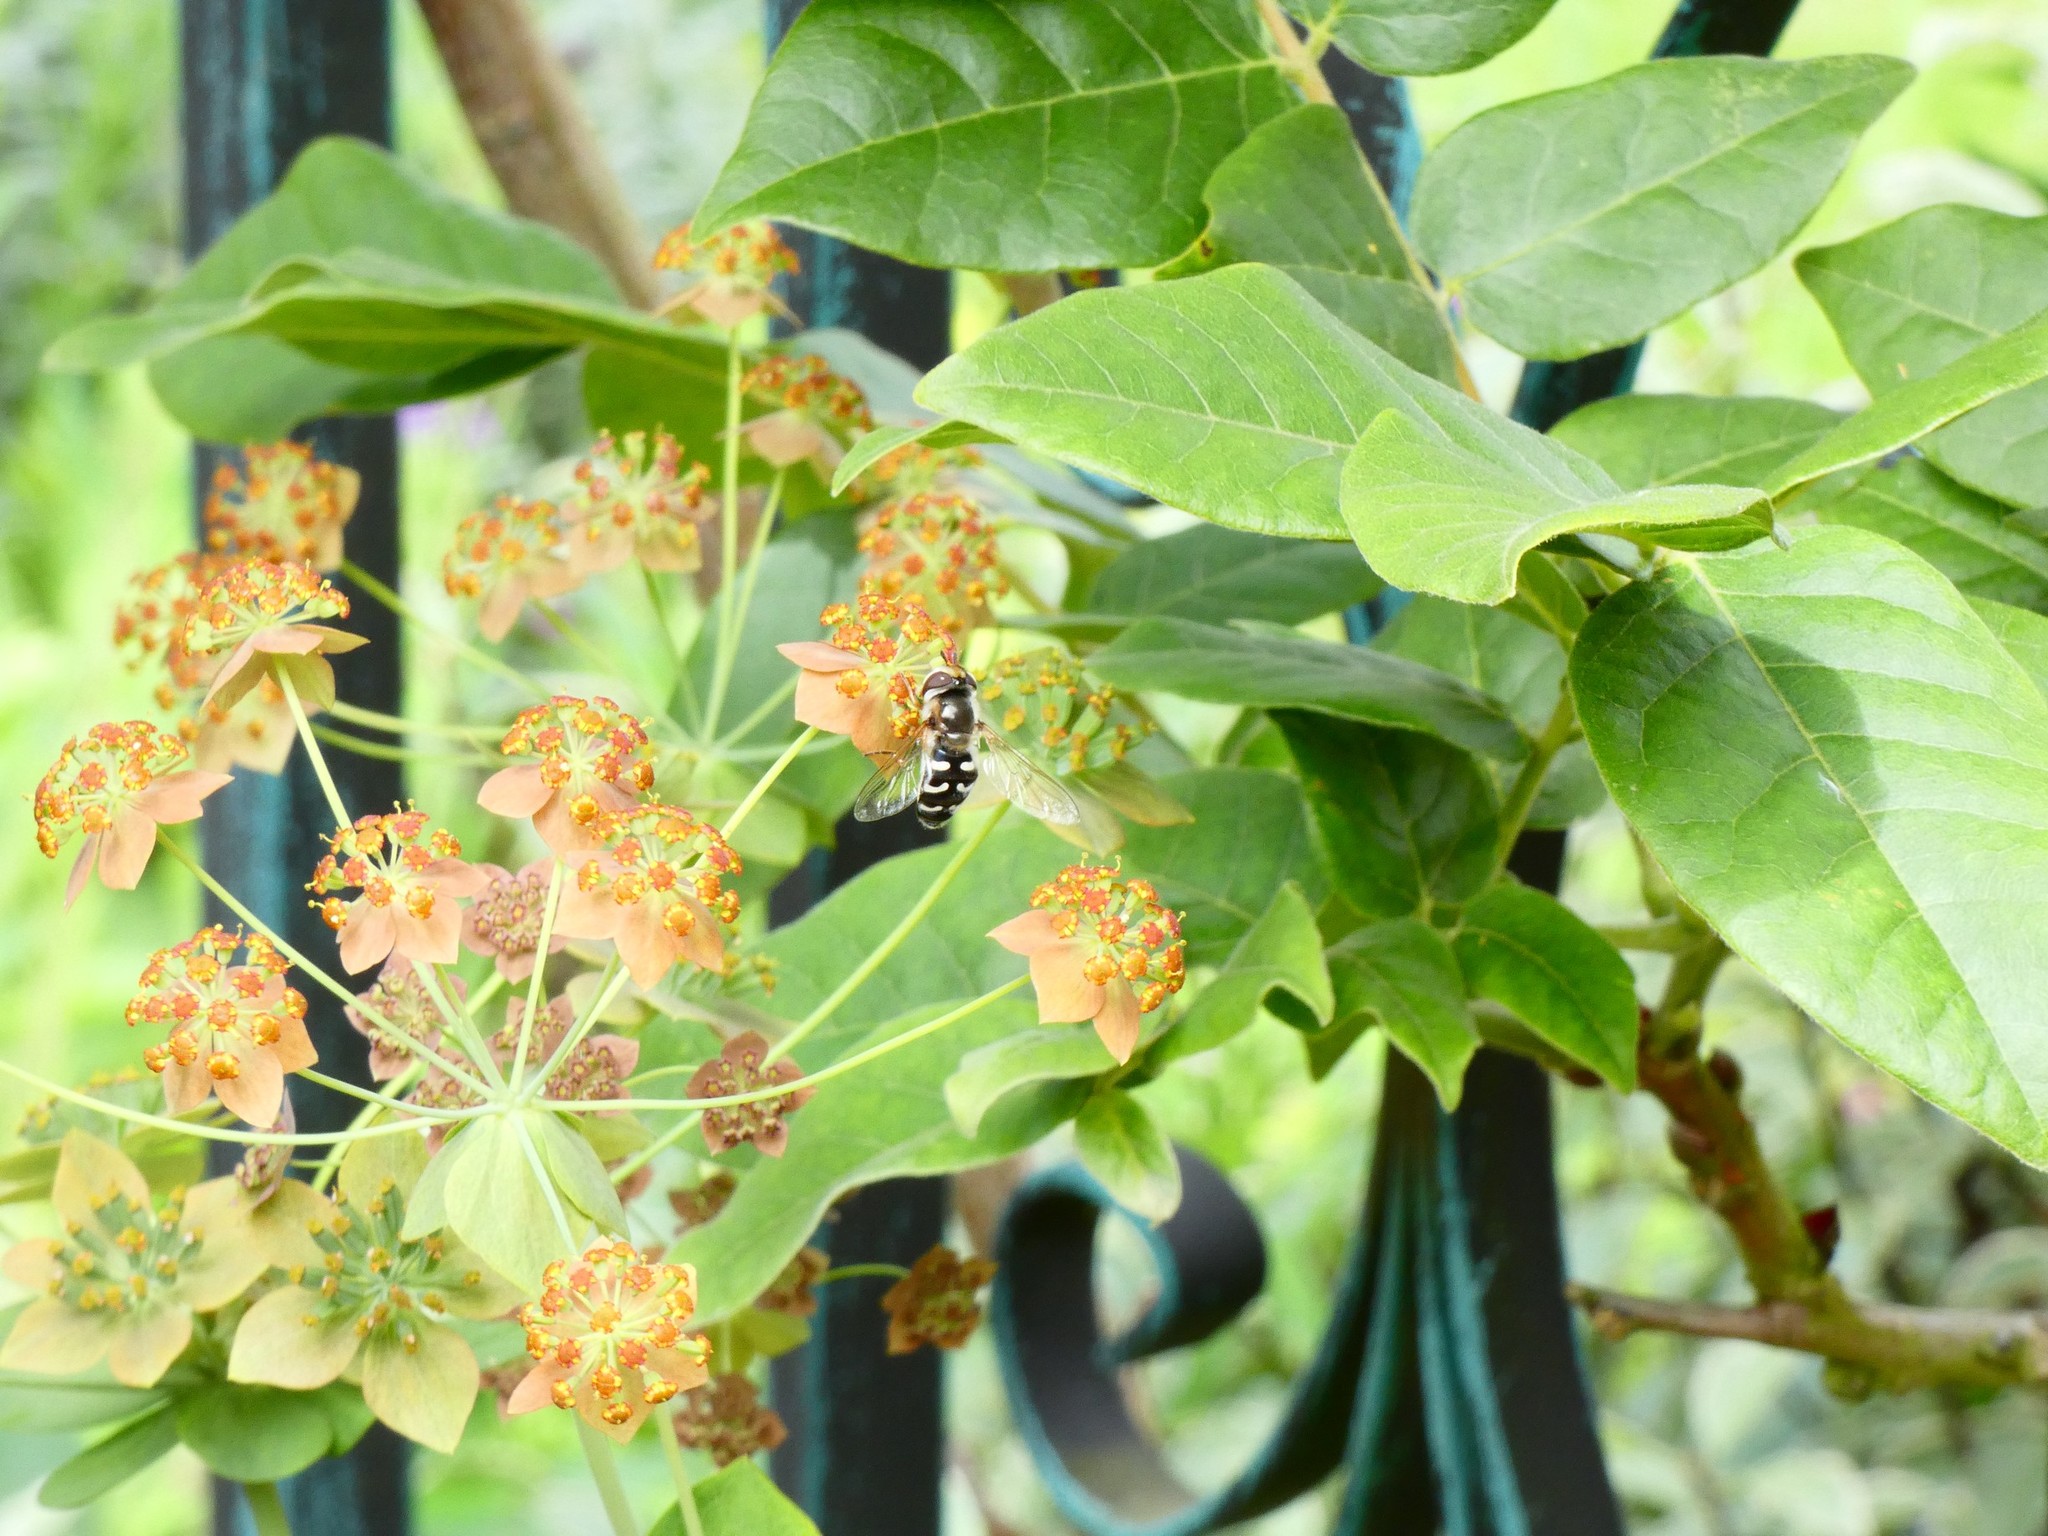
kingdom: Animalia
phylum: Arthropoda
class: Insecta
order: Diptera
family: Syrphidae
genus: Scaeva
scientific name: Scaeva pyrastri
